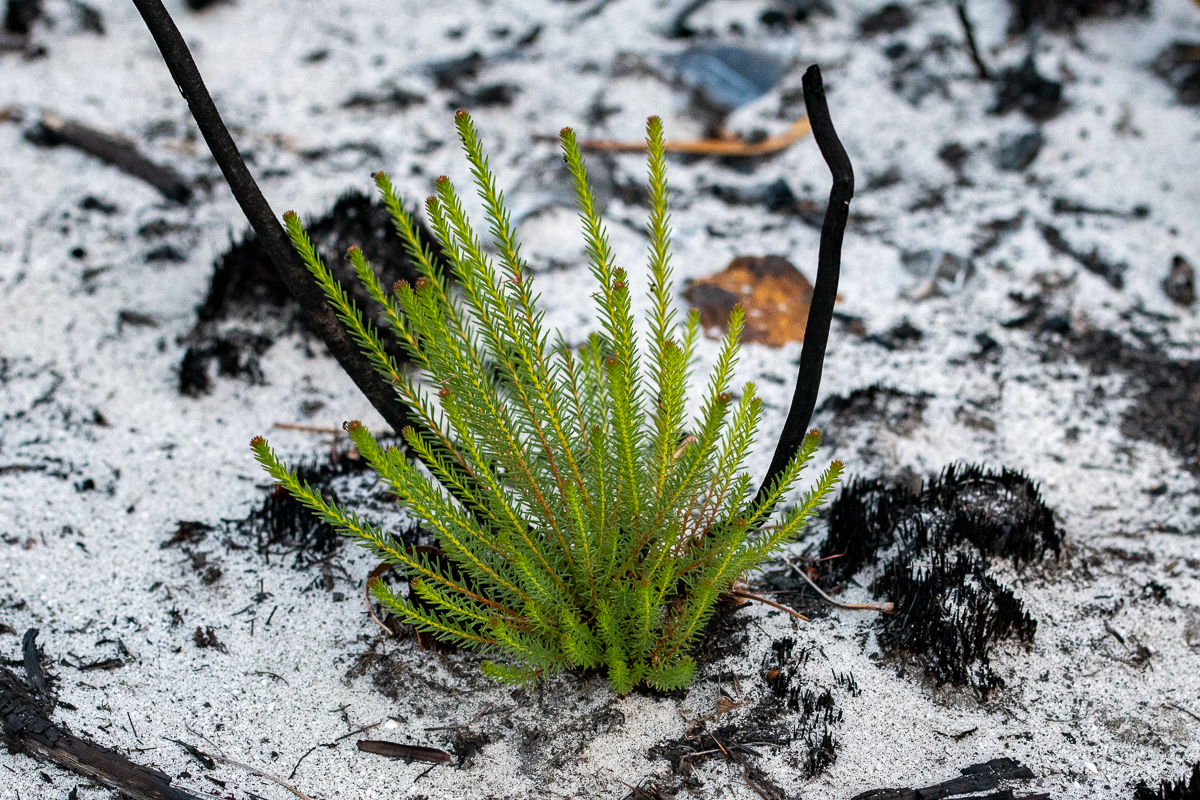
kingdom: Plantae
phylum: Tracheophyta
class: Magnoliopsida
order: Bruniales
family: Bruniaceae
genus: Berzelia
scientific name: Berzelia abrotanoides
